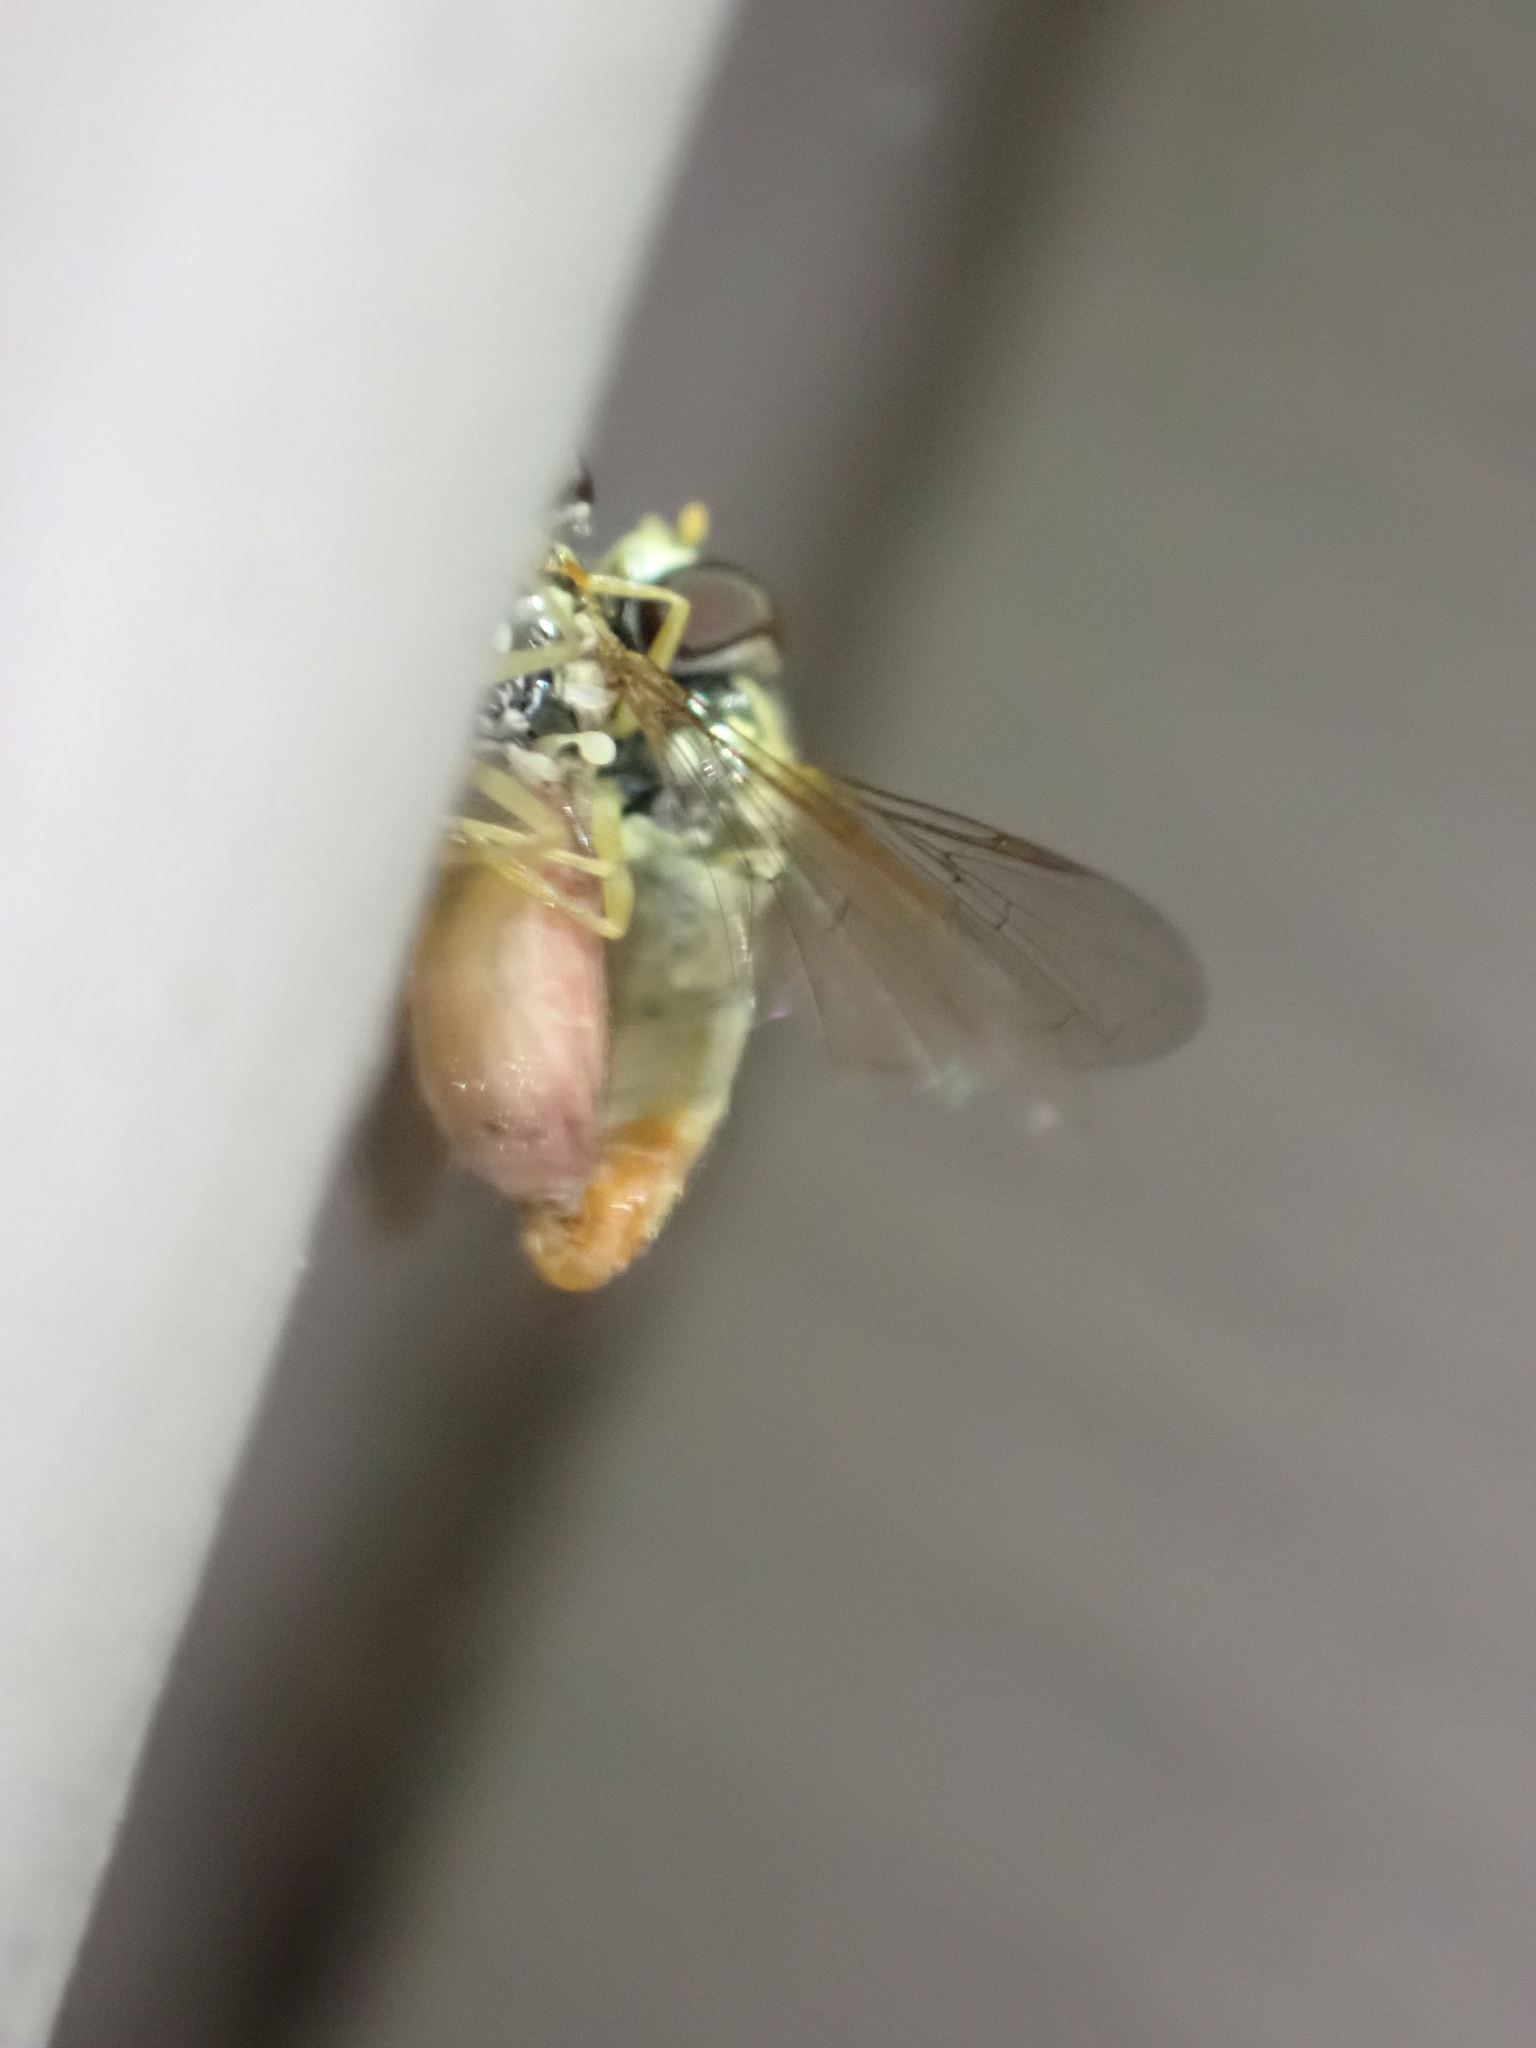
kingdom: Animalia
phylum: Arthropoda
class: Insecta
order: Diptera
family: Syrphidae
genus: Toxomerus
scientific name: Toxomerus marginatus
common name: Syrphid fly
